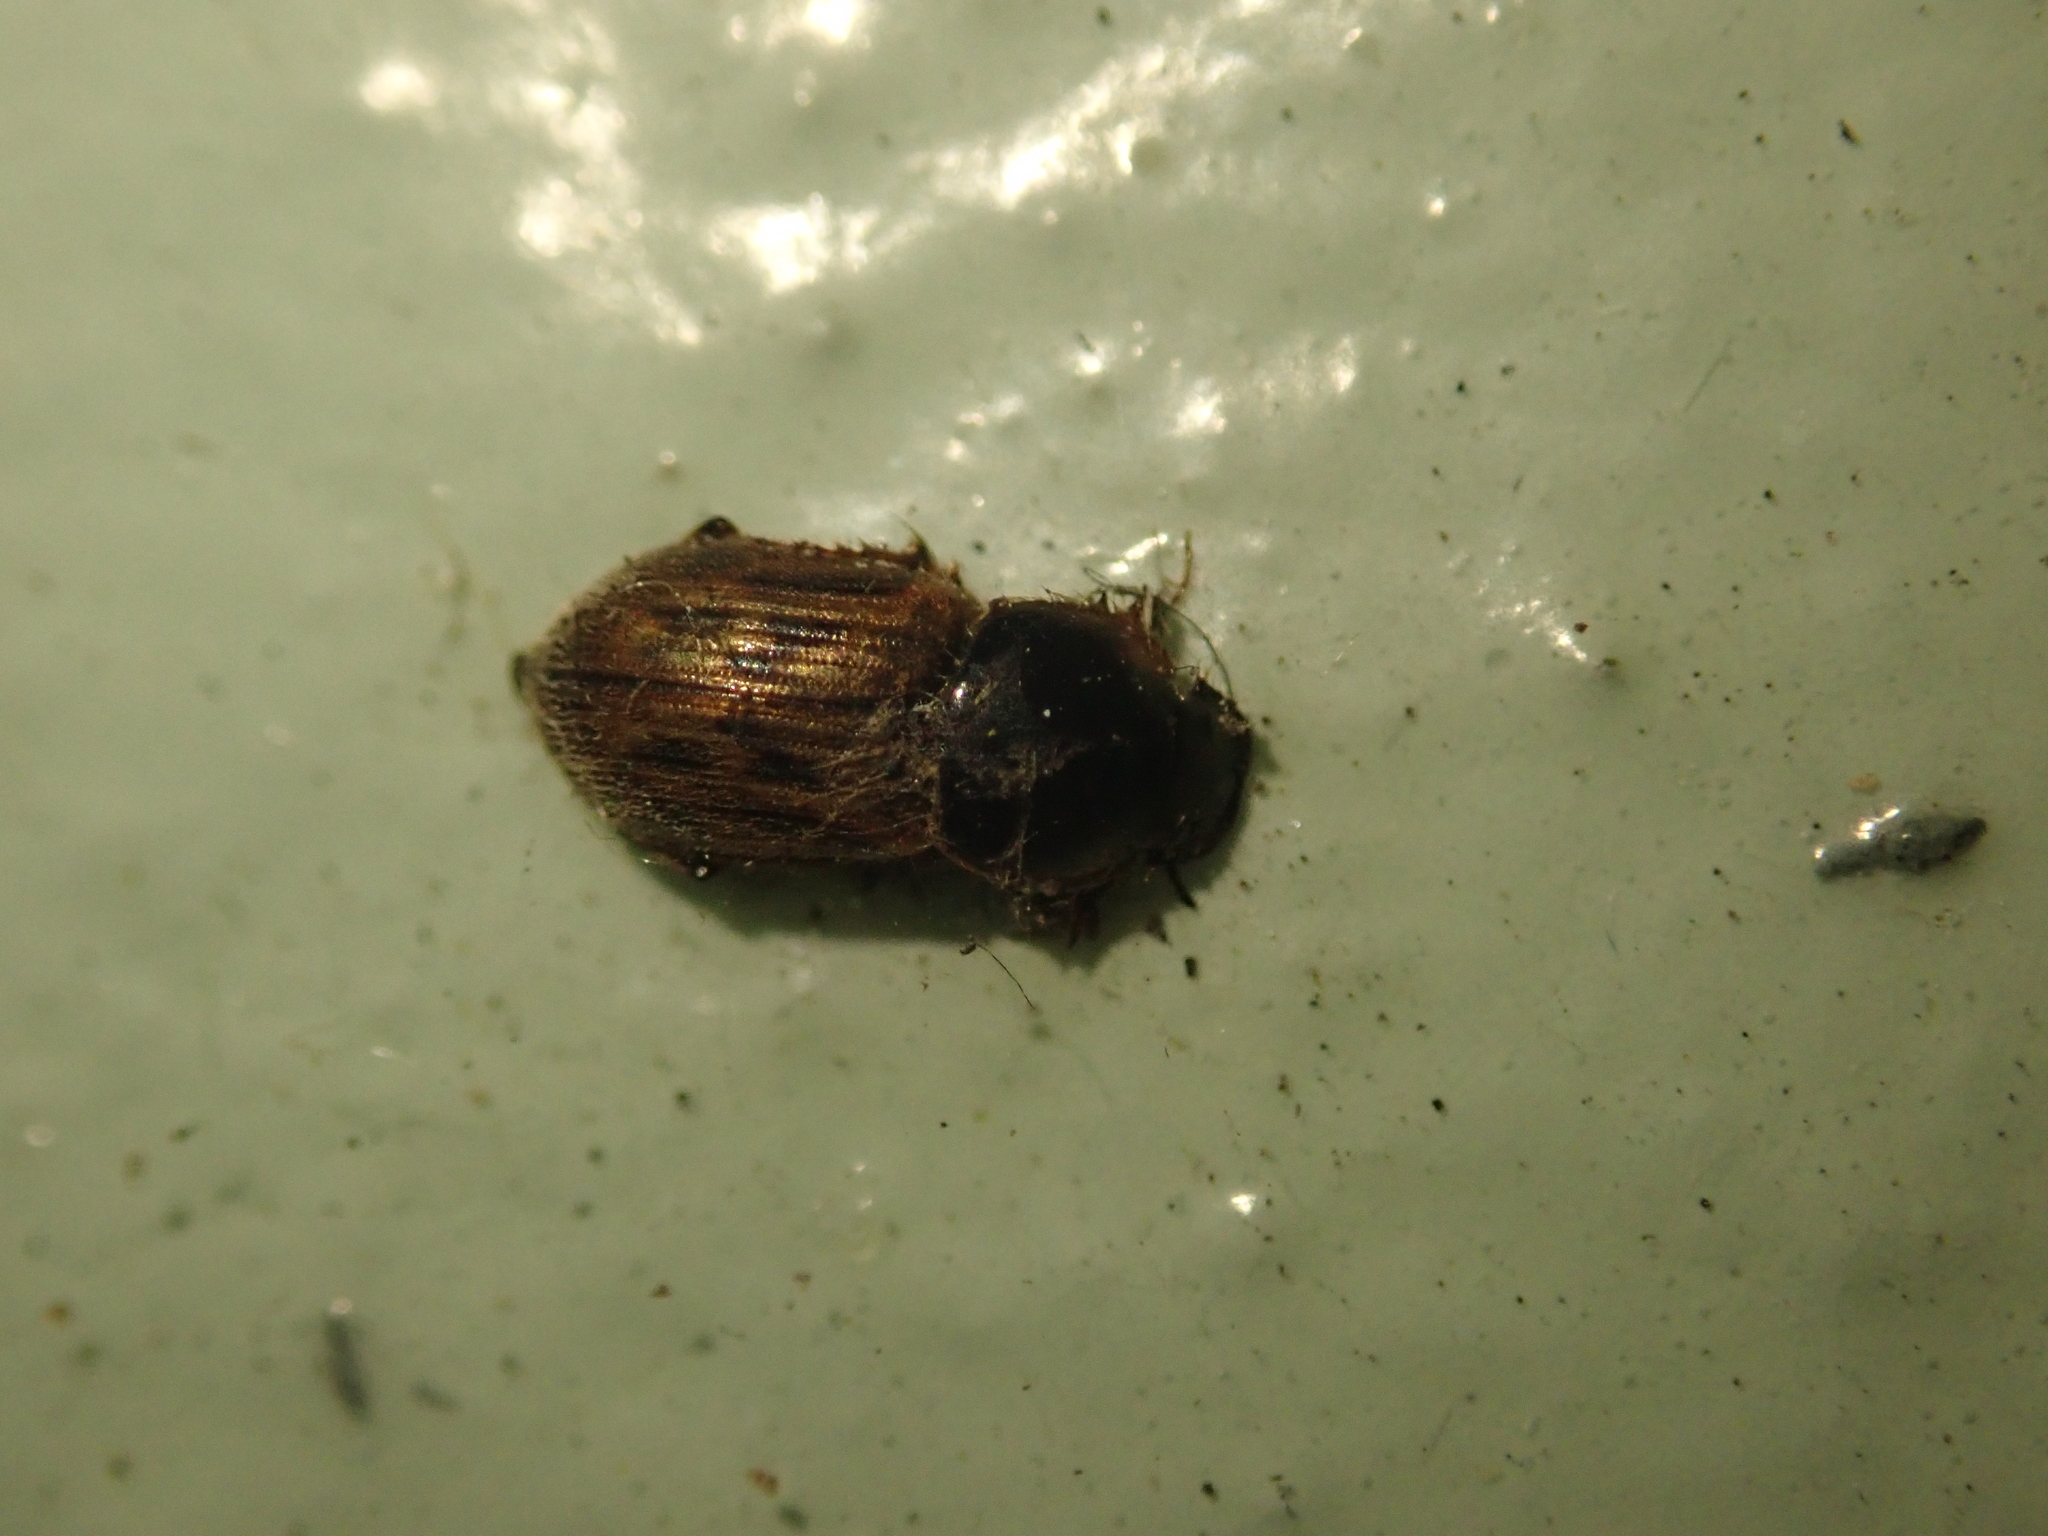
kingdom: Animalia
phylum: Arthropoda
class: Insecta
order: Coleoptera
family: Scarabaeidae
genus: Nimbus
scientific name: Nimbus contaminatus
